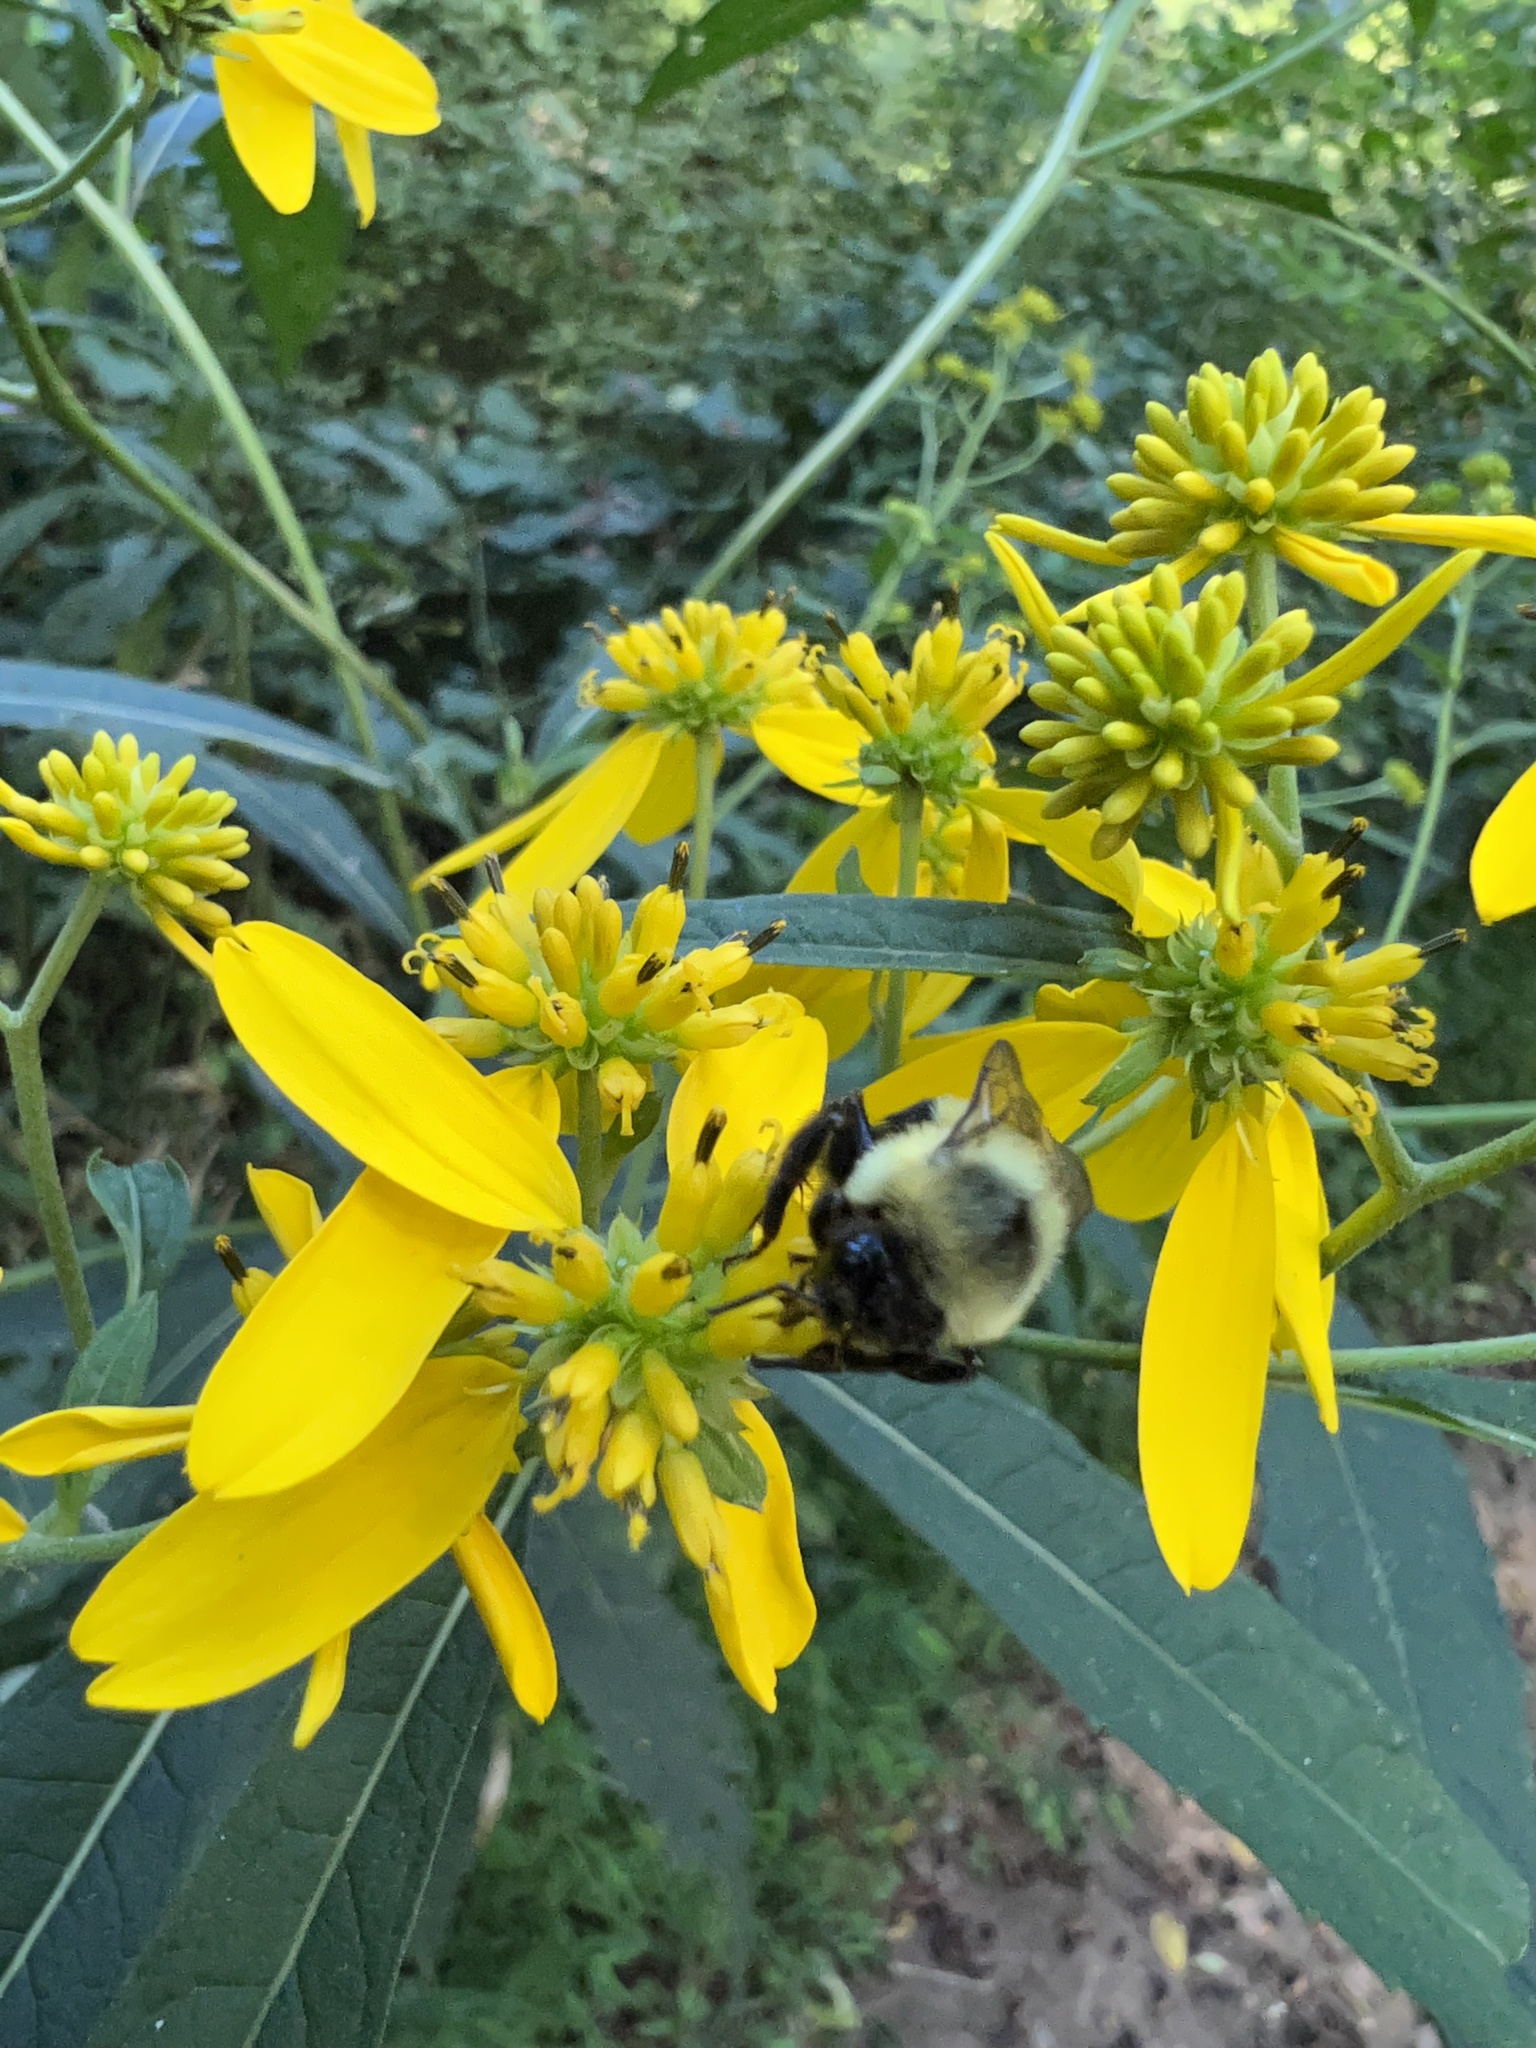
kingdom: Animalia
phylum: Arthropoda
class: Insecta
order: Hymenoptera
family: Apidae
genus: Bombus
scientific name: Bombus impatiens
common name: Common eastern bumble bee
